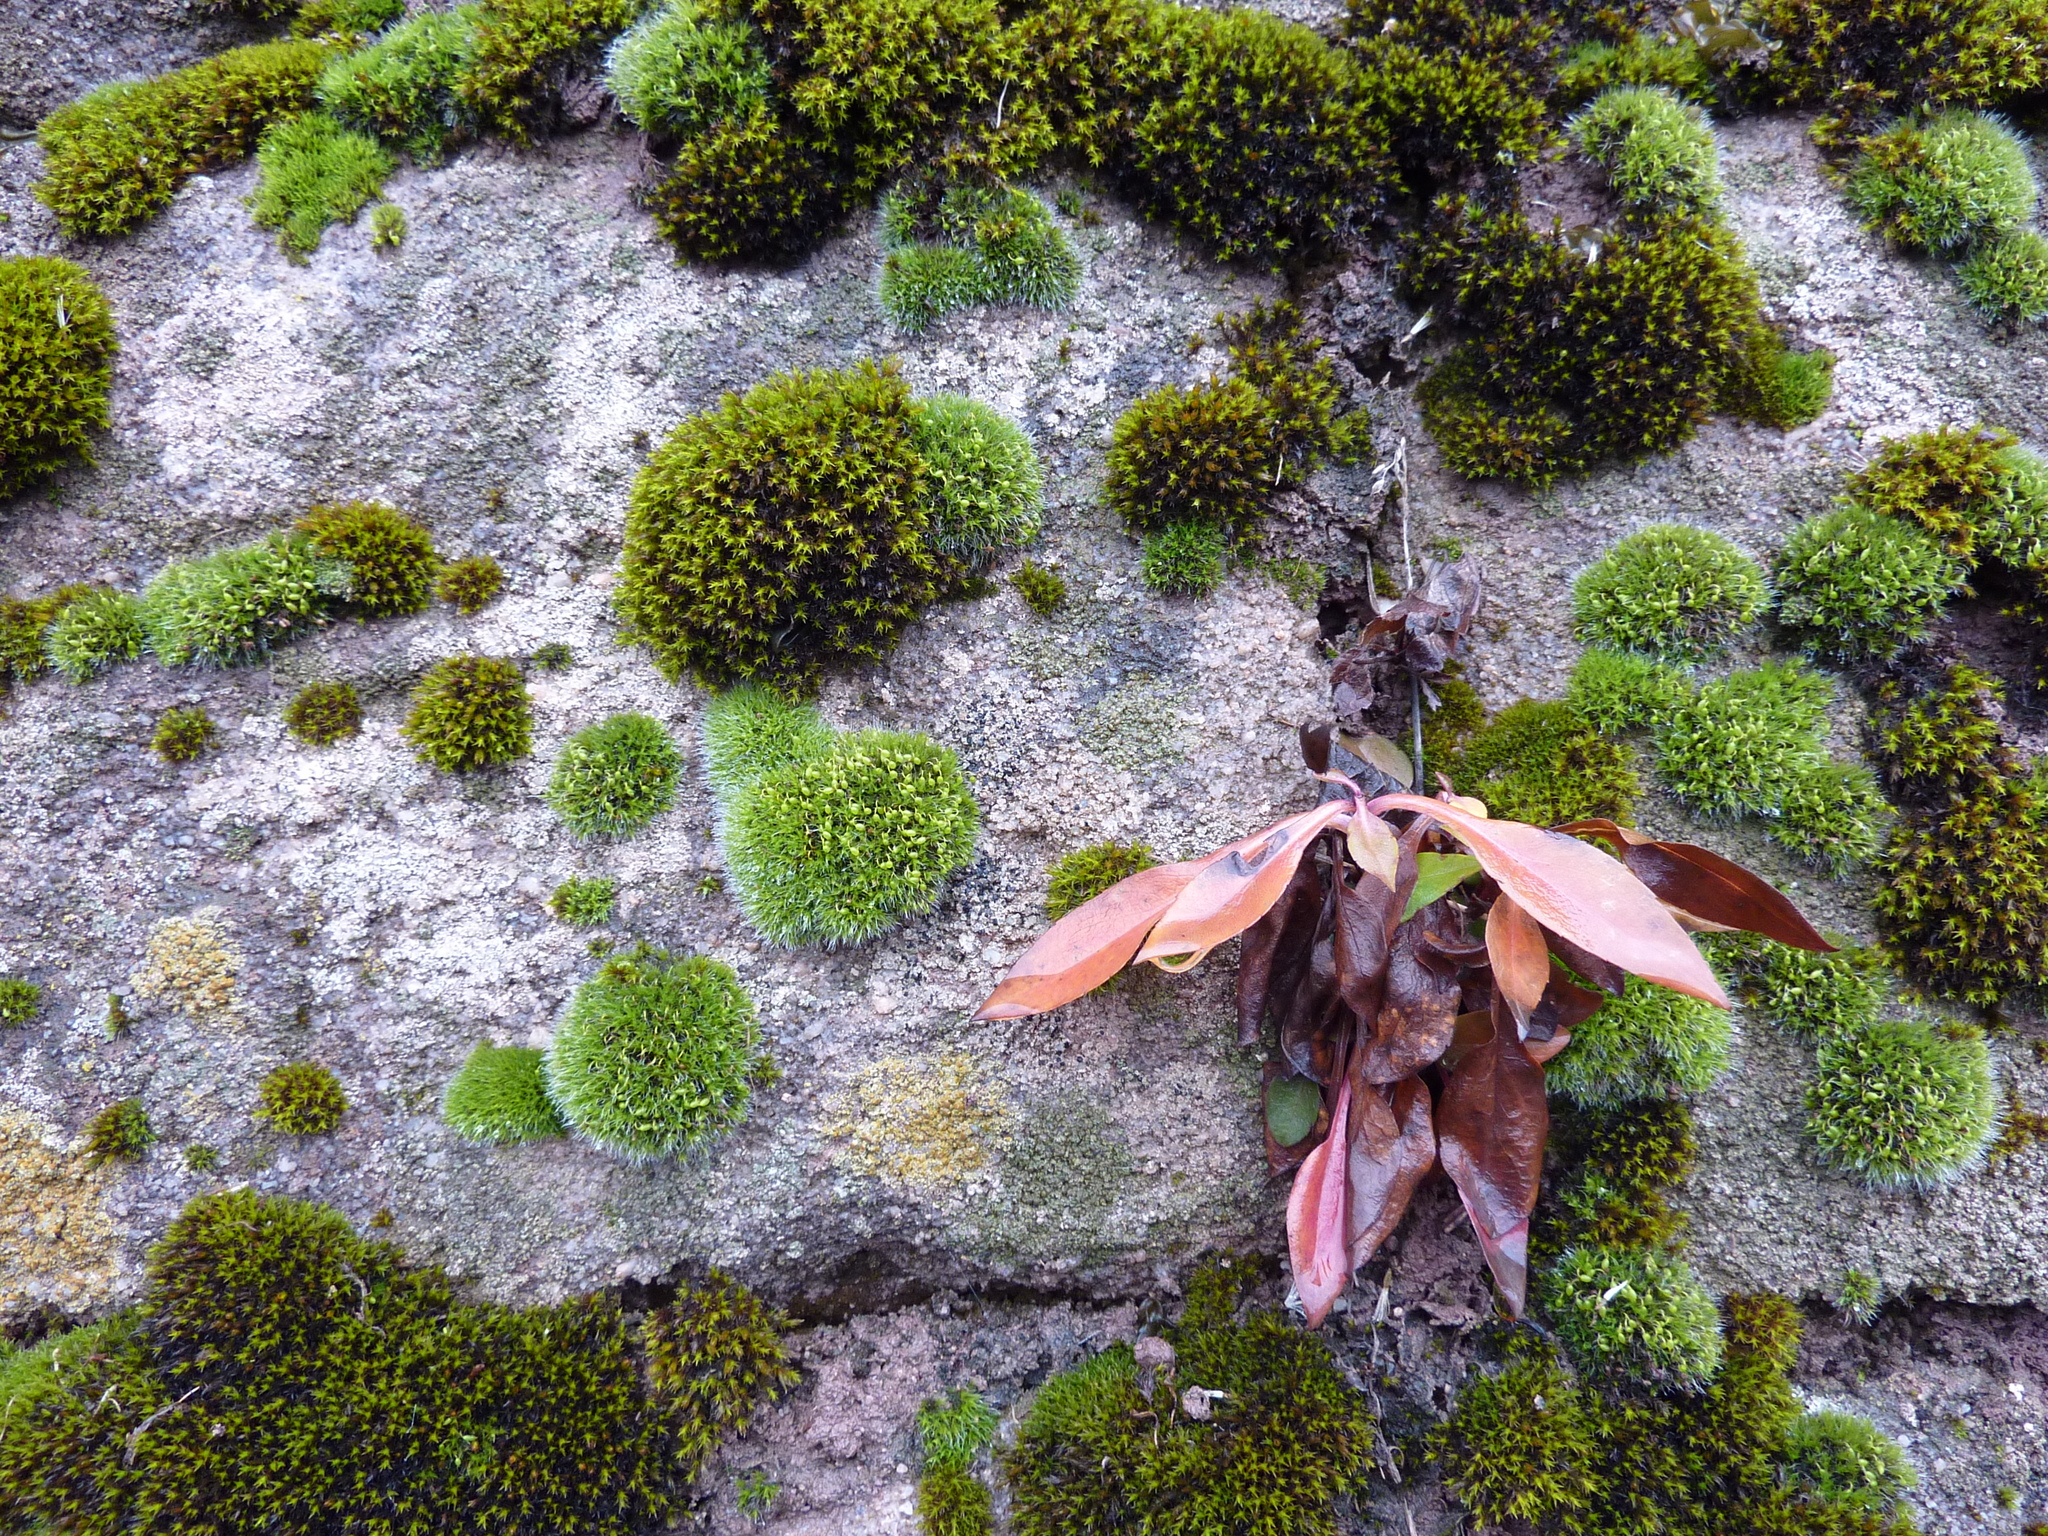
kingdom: Plantae
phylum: Bryophyta
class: Bryopsida
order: Grimmiales
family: Grimmiaceae
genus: Grimmia
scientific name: Grimmia pulvinata
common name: Grey-cushioned grimmia
